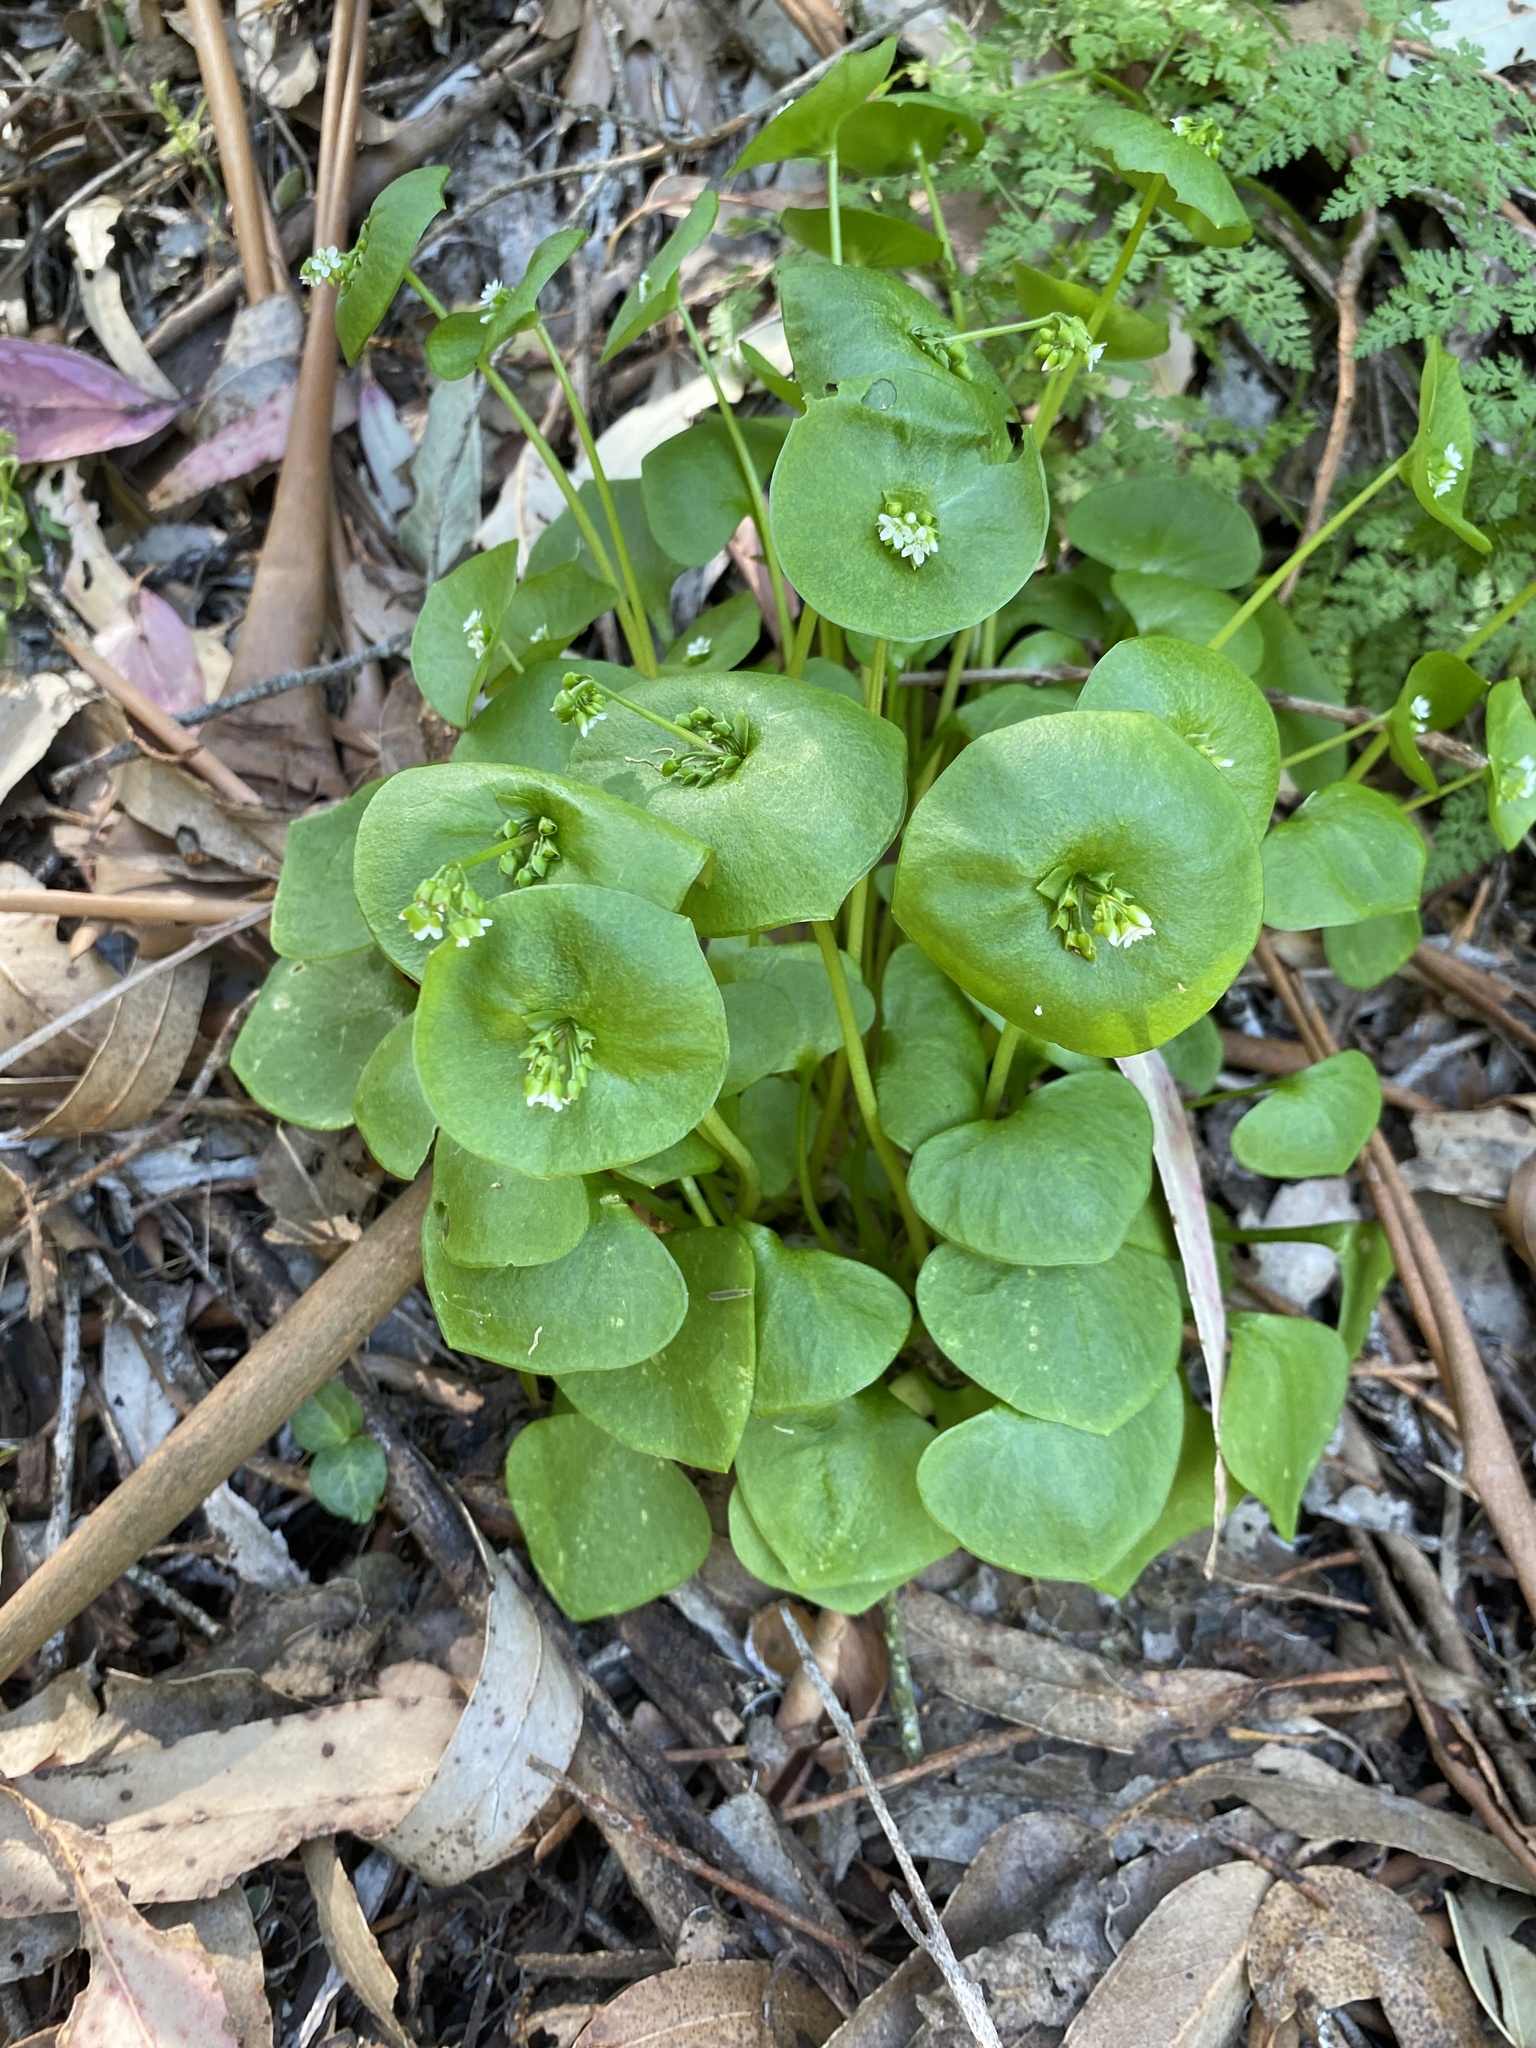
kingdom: Plantae
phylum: Tracheophyta
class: Magnoliopsida
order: Caryophyllales
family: Montiaceae
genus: Claytonia
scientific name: Claytonia perfoliata
